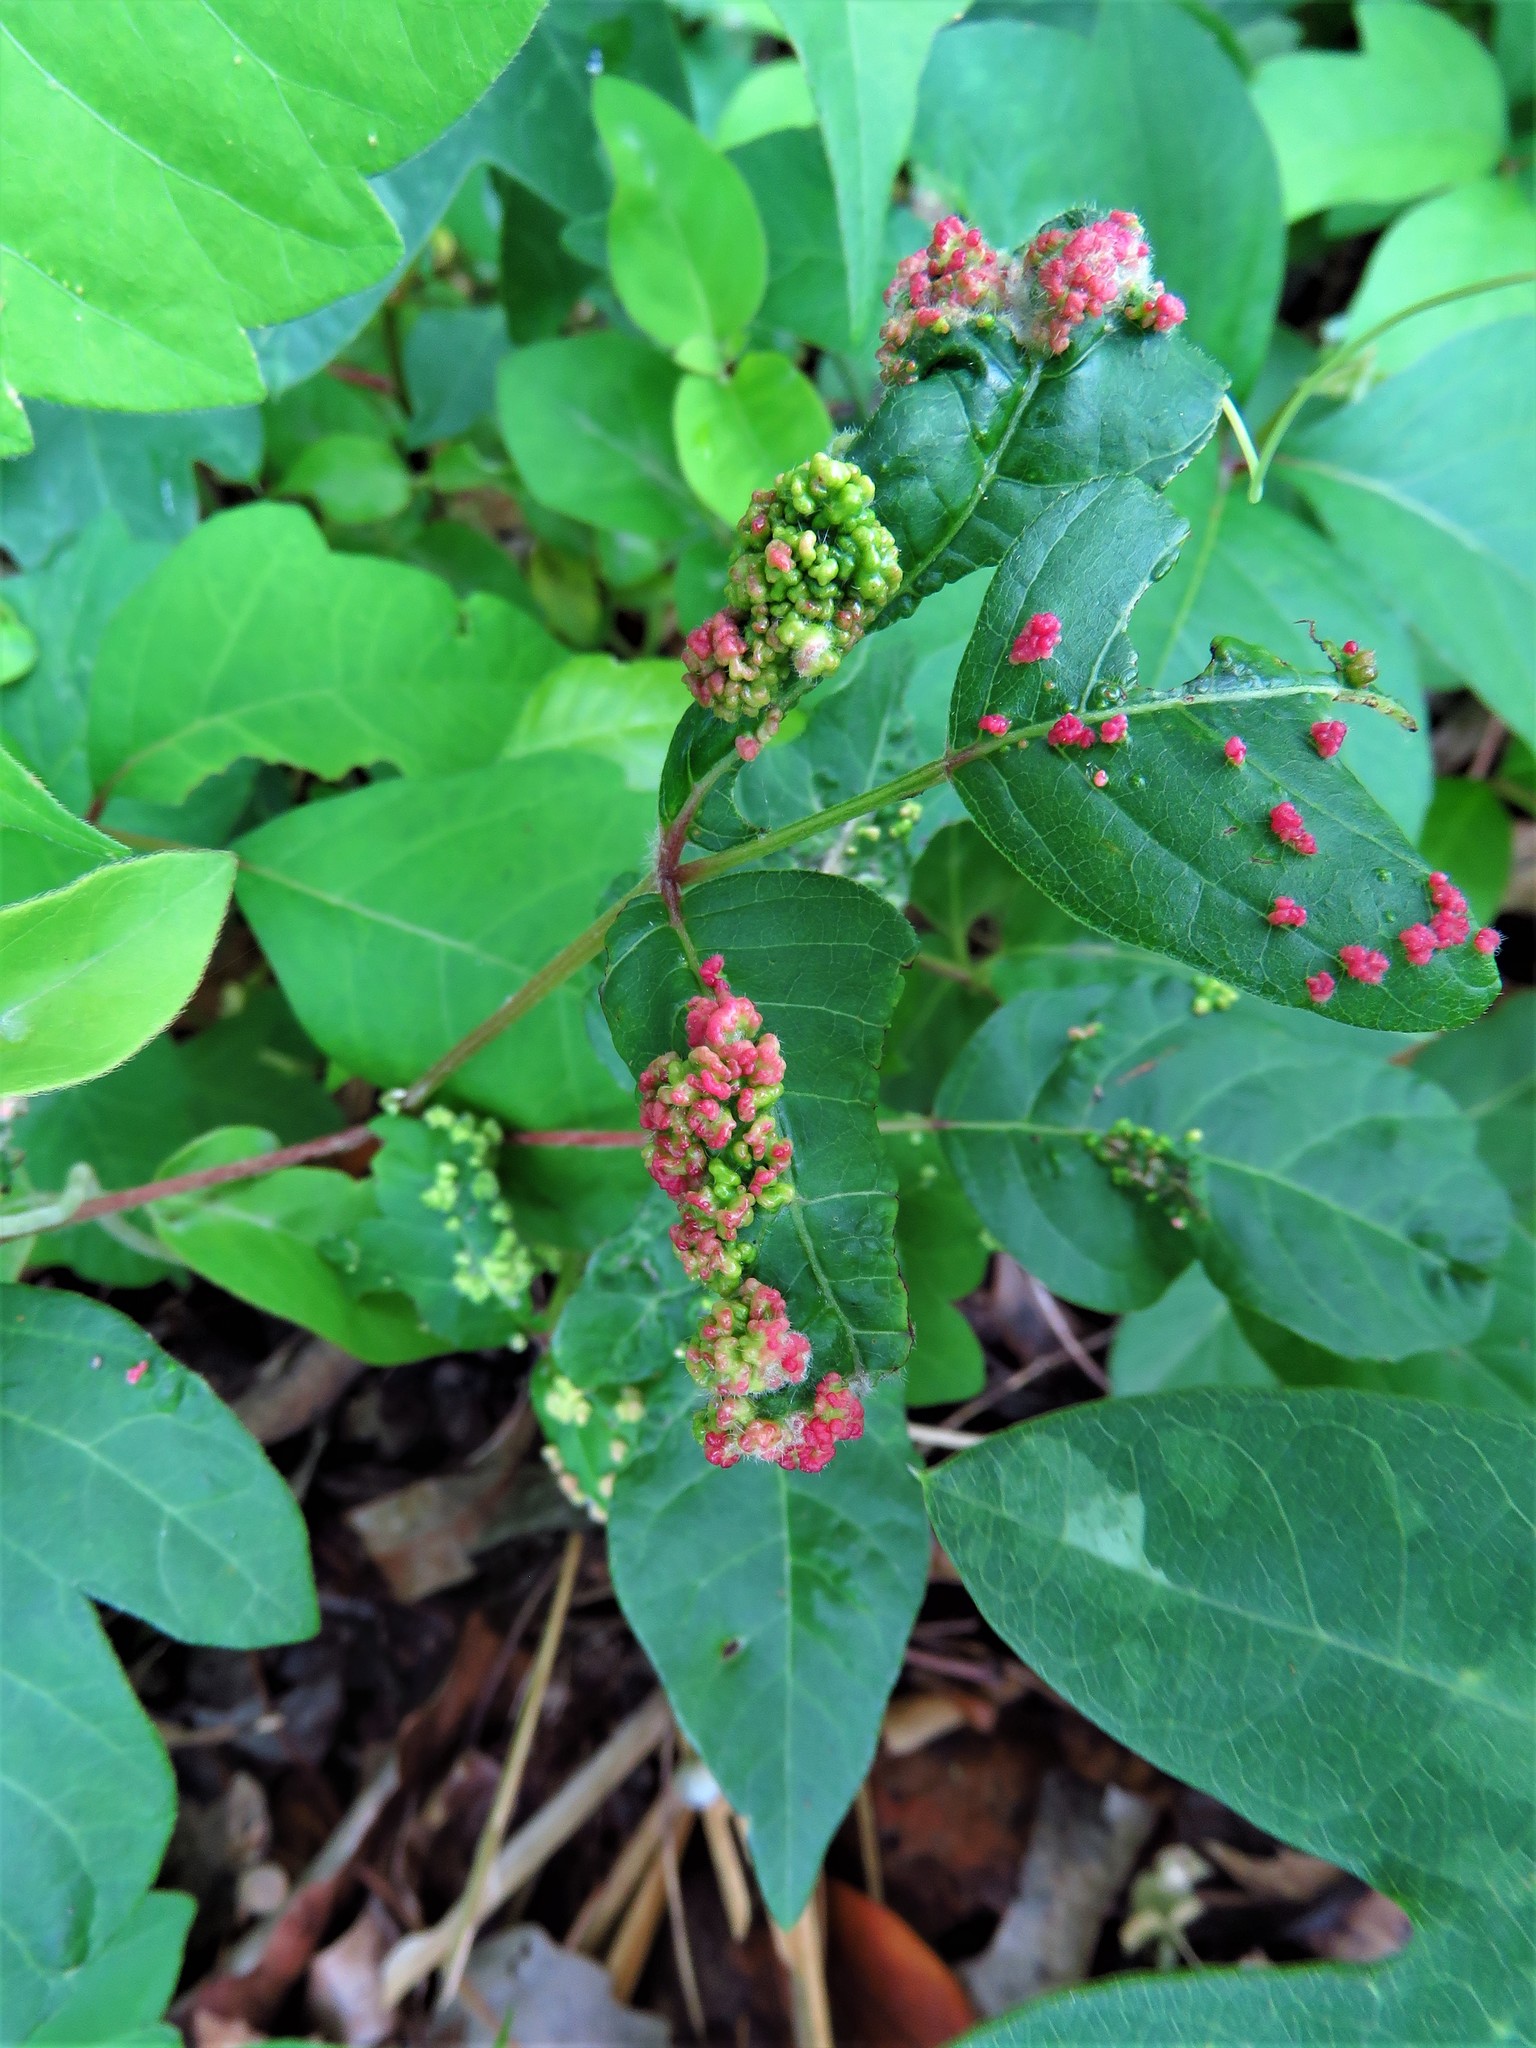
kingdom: Animalia
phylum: Arthropoda
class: Arachnida
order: Trombidiformes
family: Eriophyidae
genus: Aculops
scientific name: Aculops
